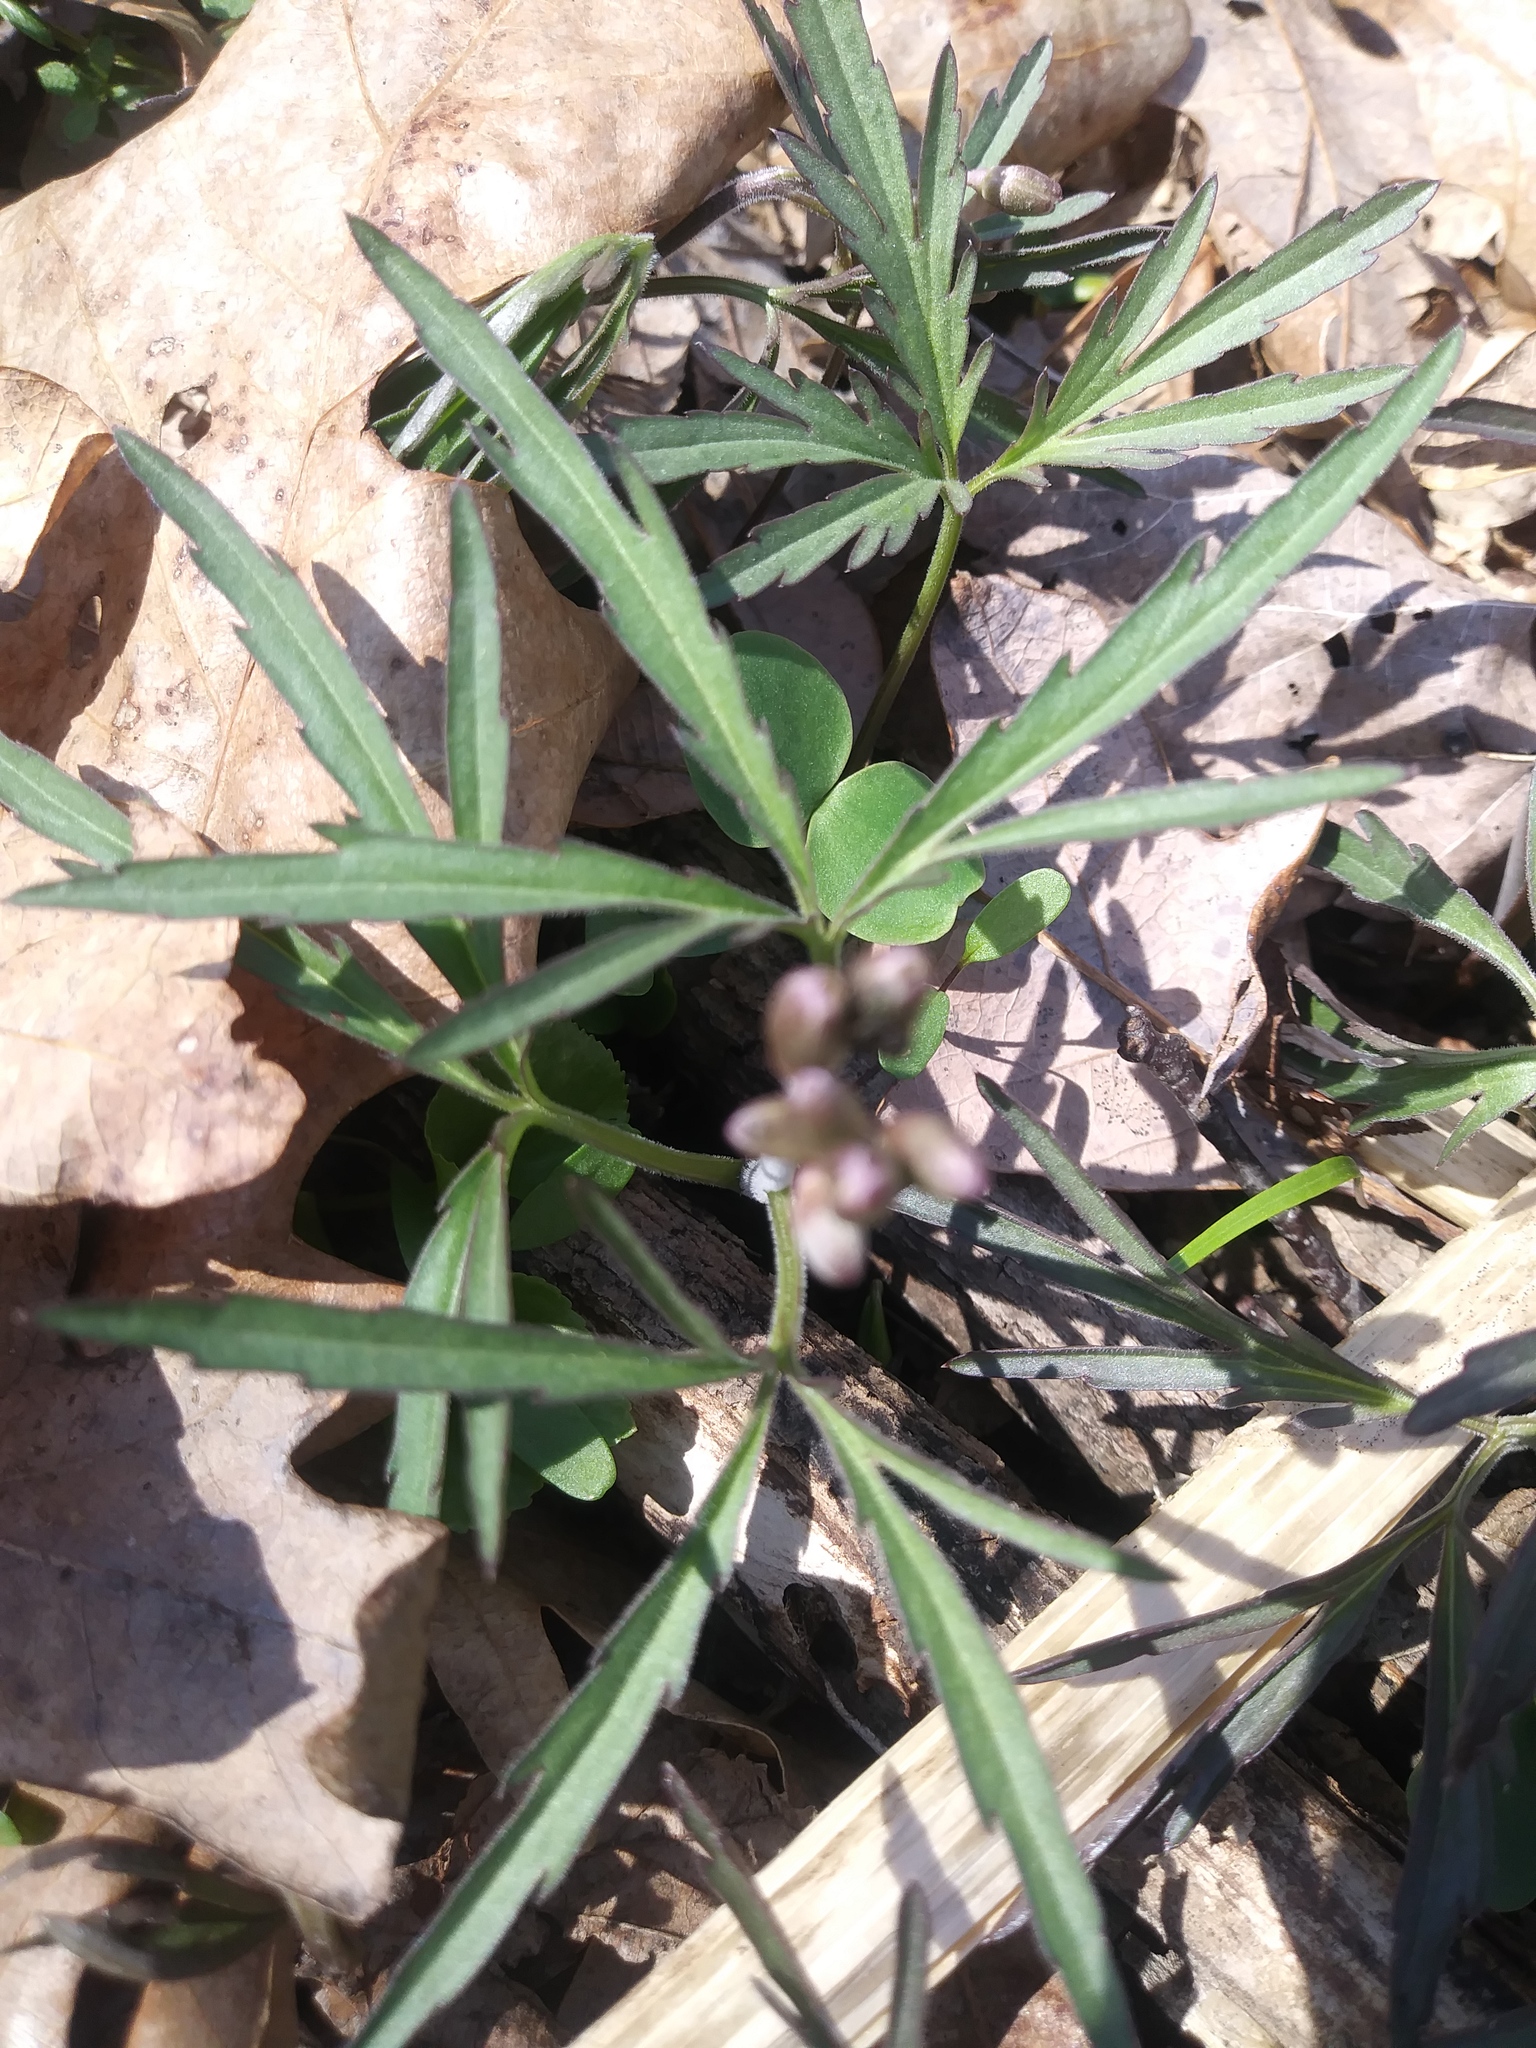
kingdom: Plantae
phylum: Tracheophyta
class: Magnoliopsida
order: Brassicales
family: Brassicaceae
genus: Cardamine
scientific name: Cardamine concatenata
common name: Cut-leaf toothcup
